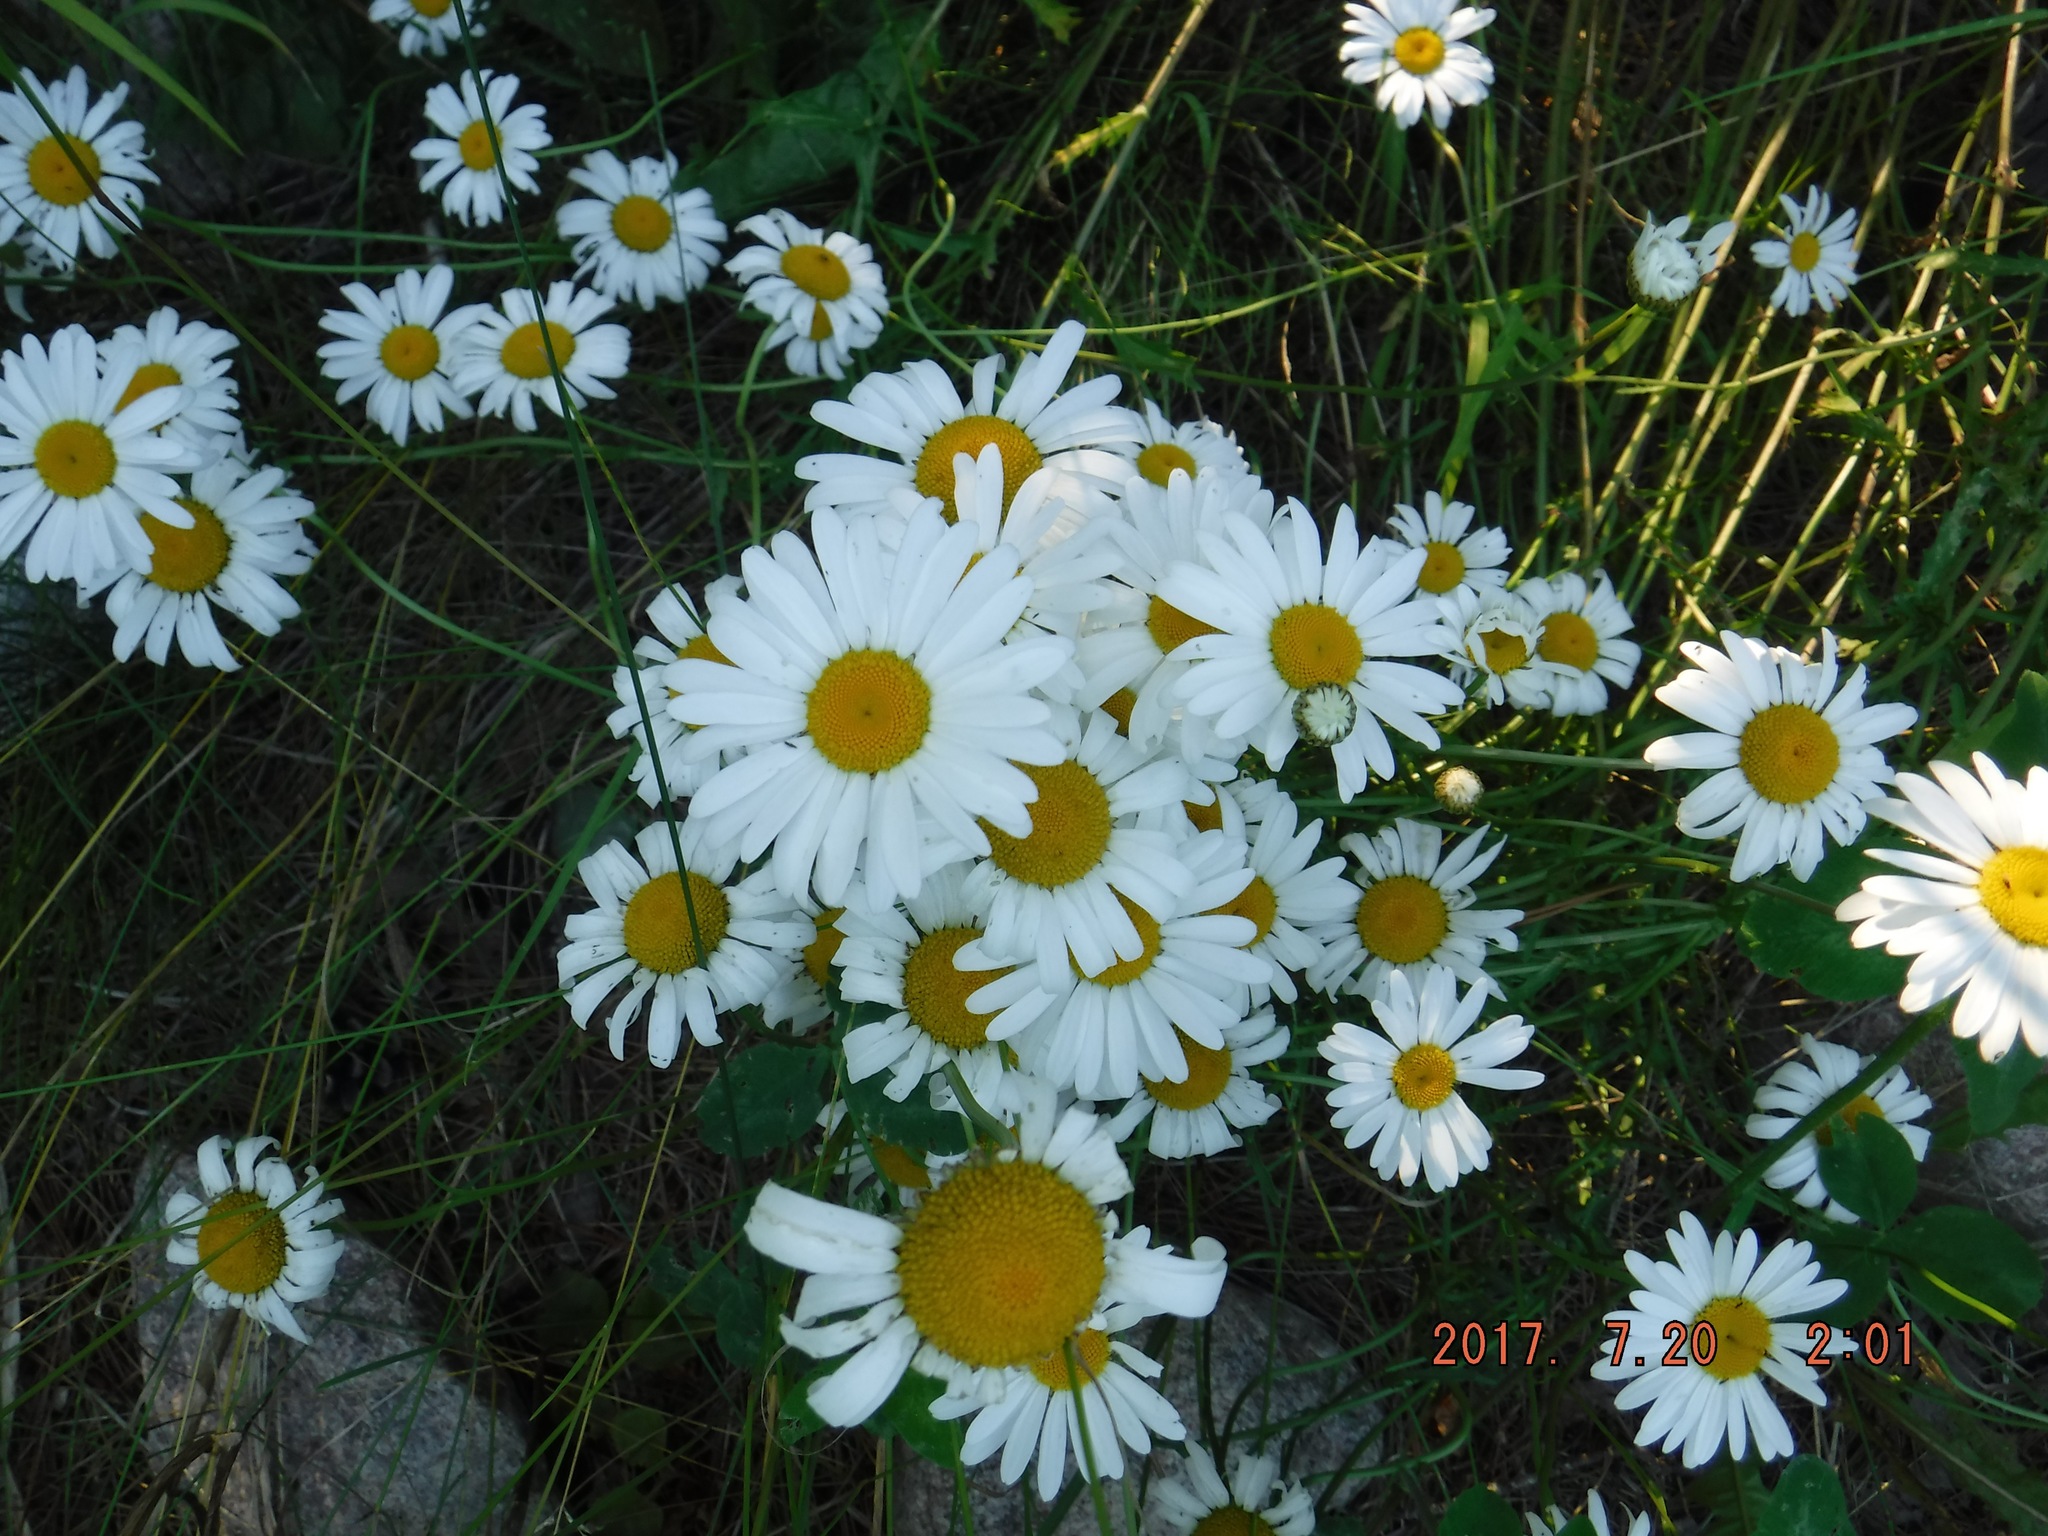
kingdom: Plantae
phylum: Tracheophyta
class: Magnoliopsida
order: Asterales
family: Asteraceae
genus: Leucanthemum
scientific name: Leucanthemum vulgare
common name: Oxeye daisy
